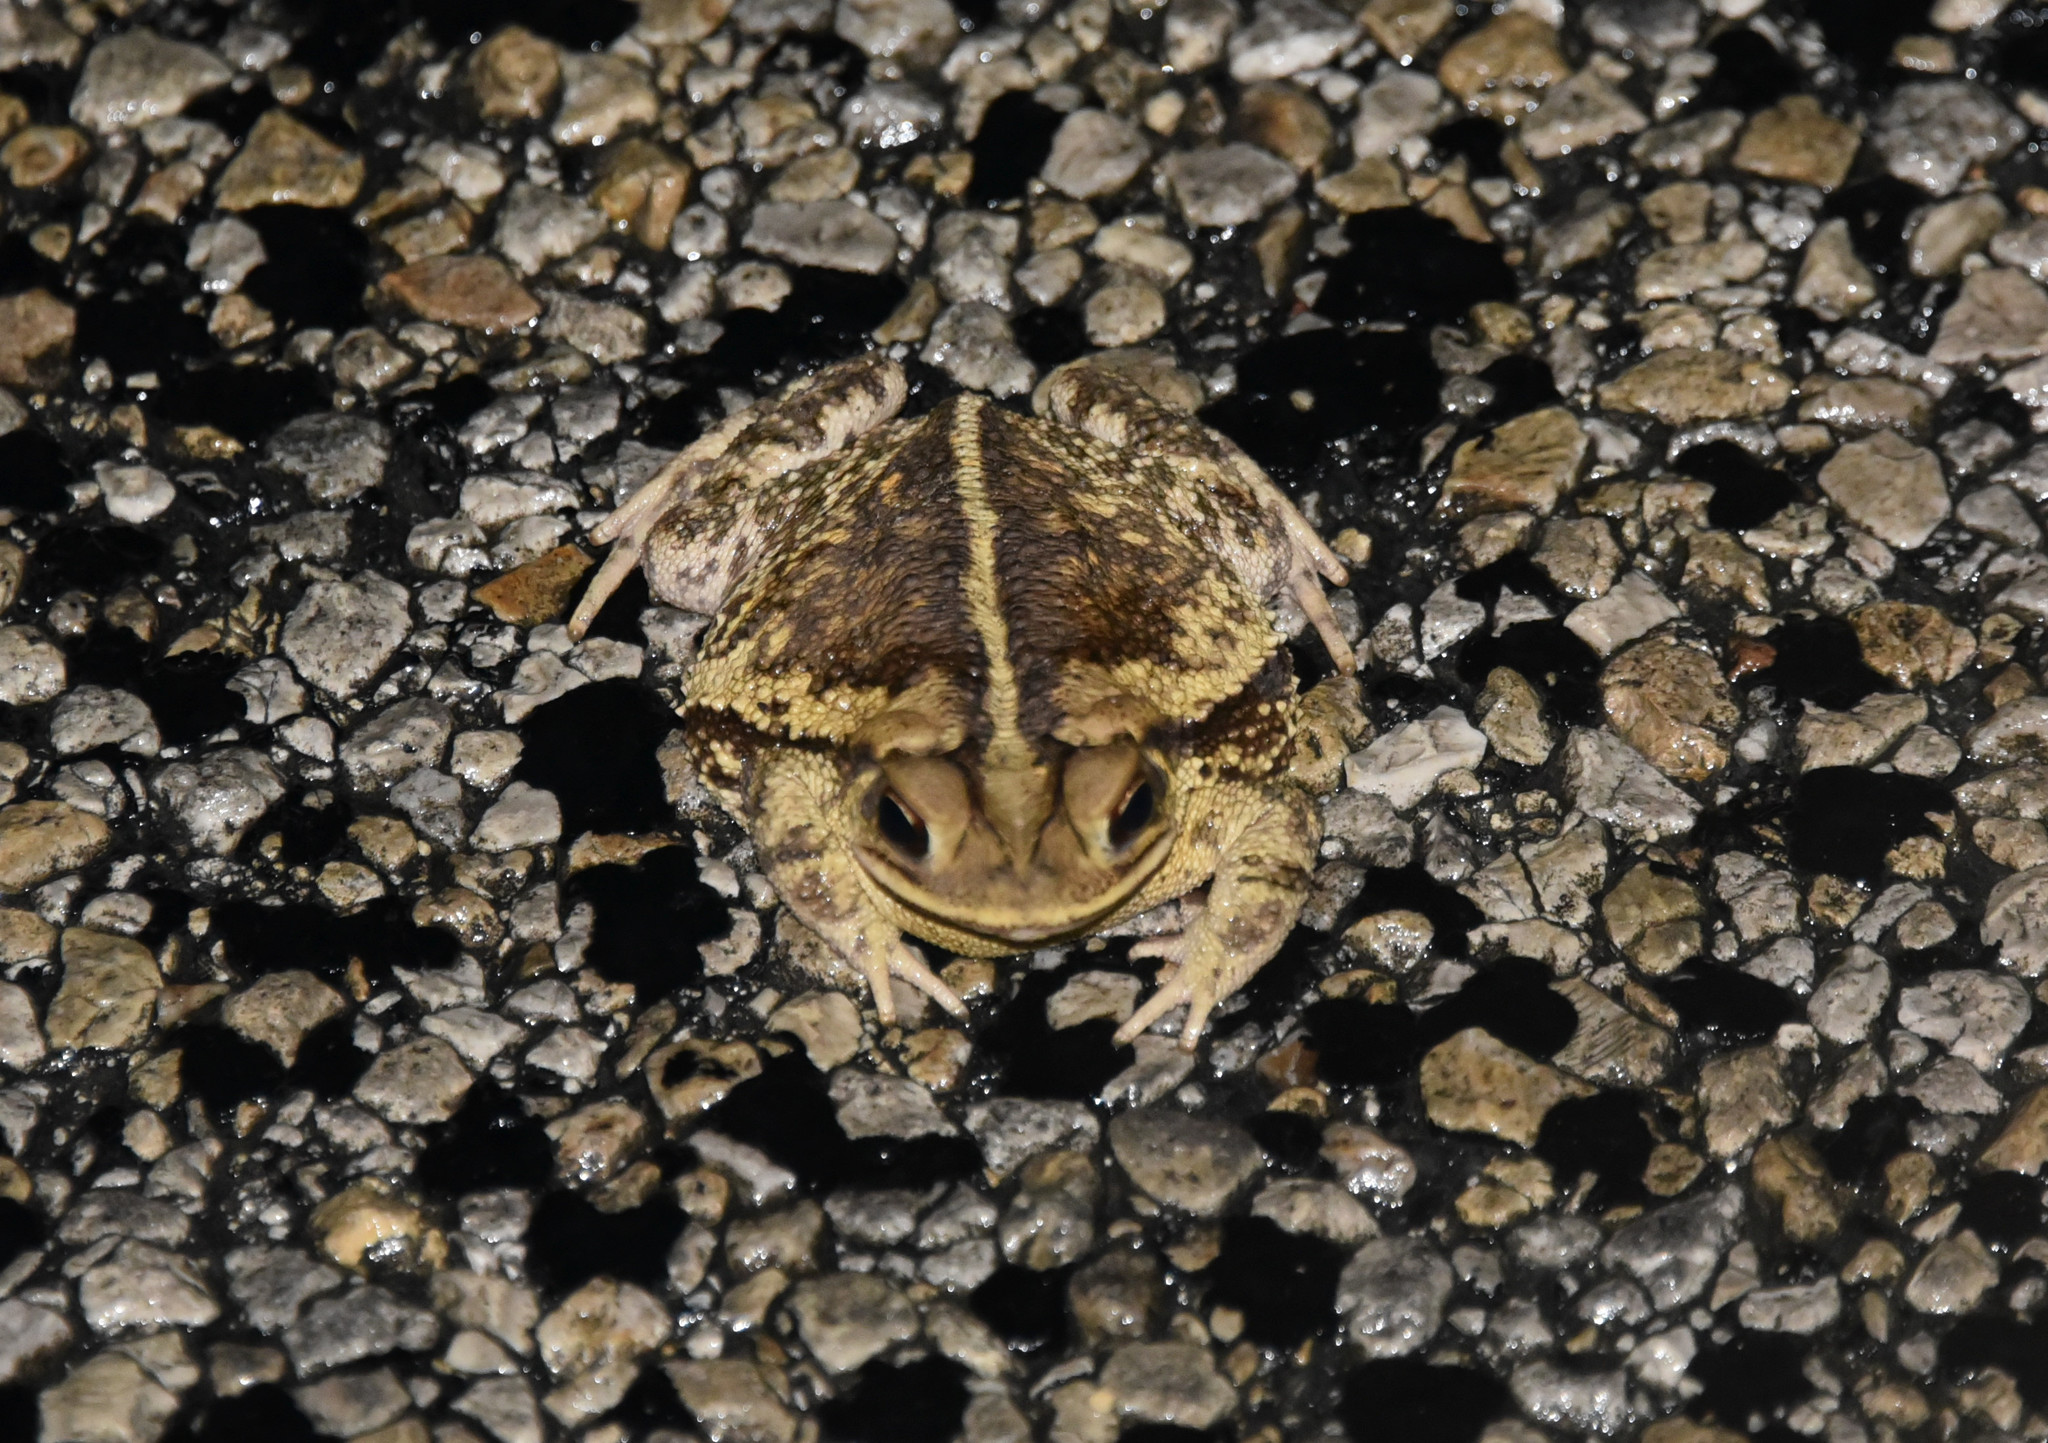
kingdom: Animalia
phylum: Chordata
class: Amphibia
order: Anura
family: Bufonidae
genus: Incilius
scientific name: Incilius nebulifer
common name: Gulf coast toad
